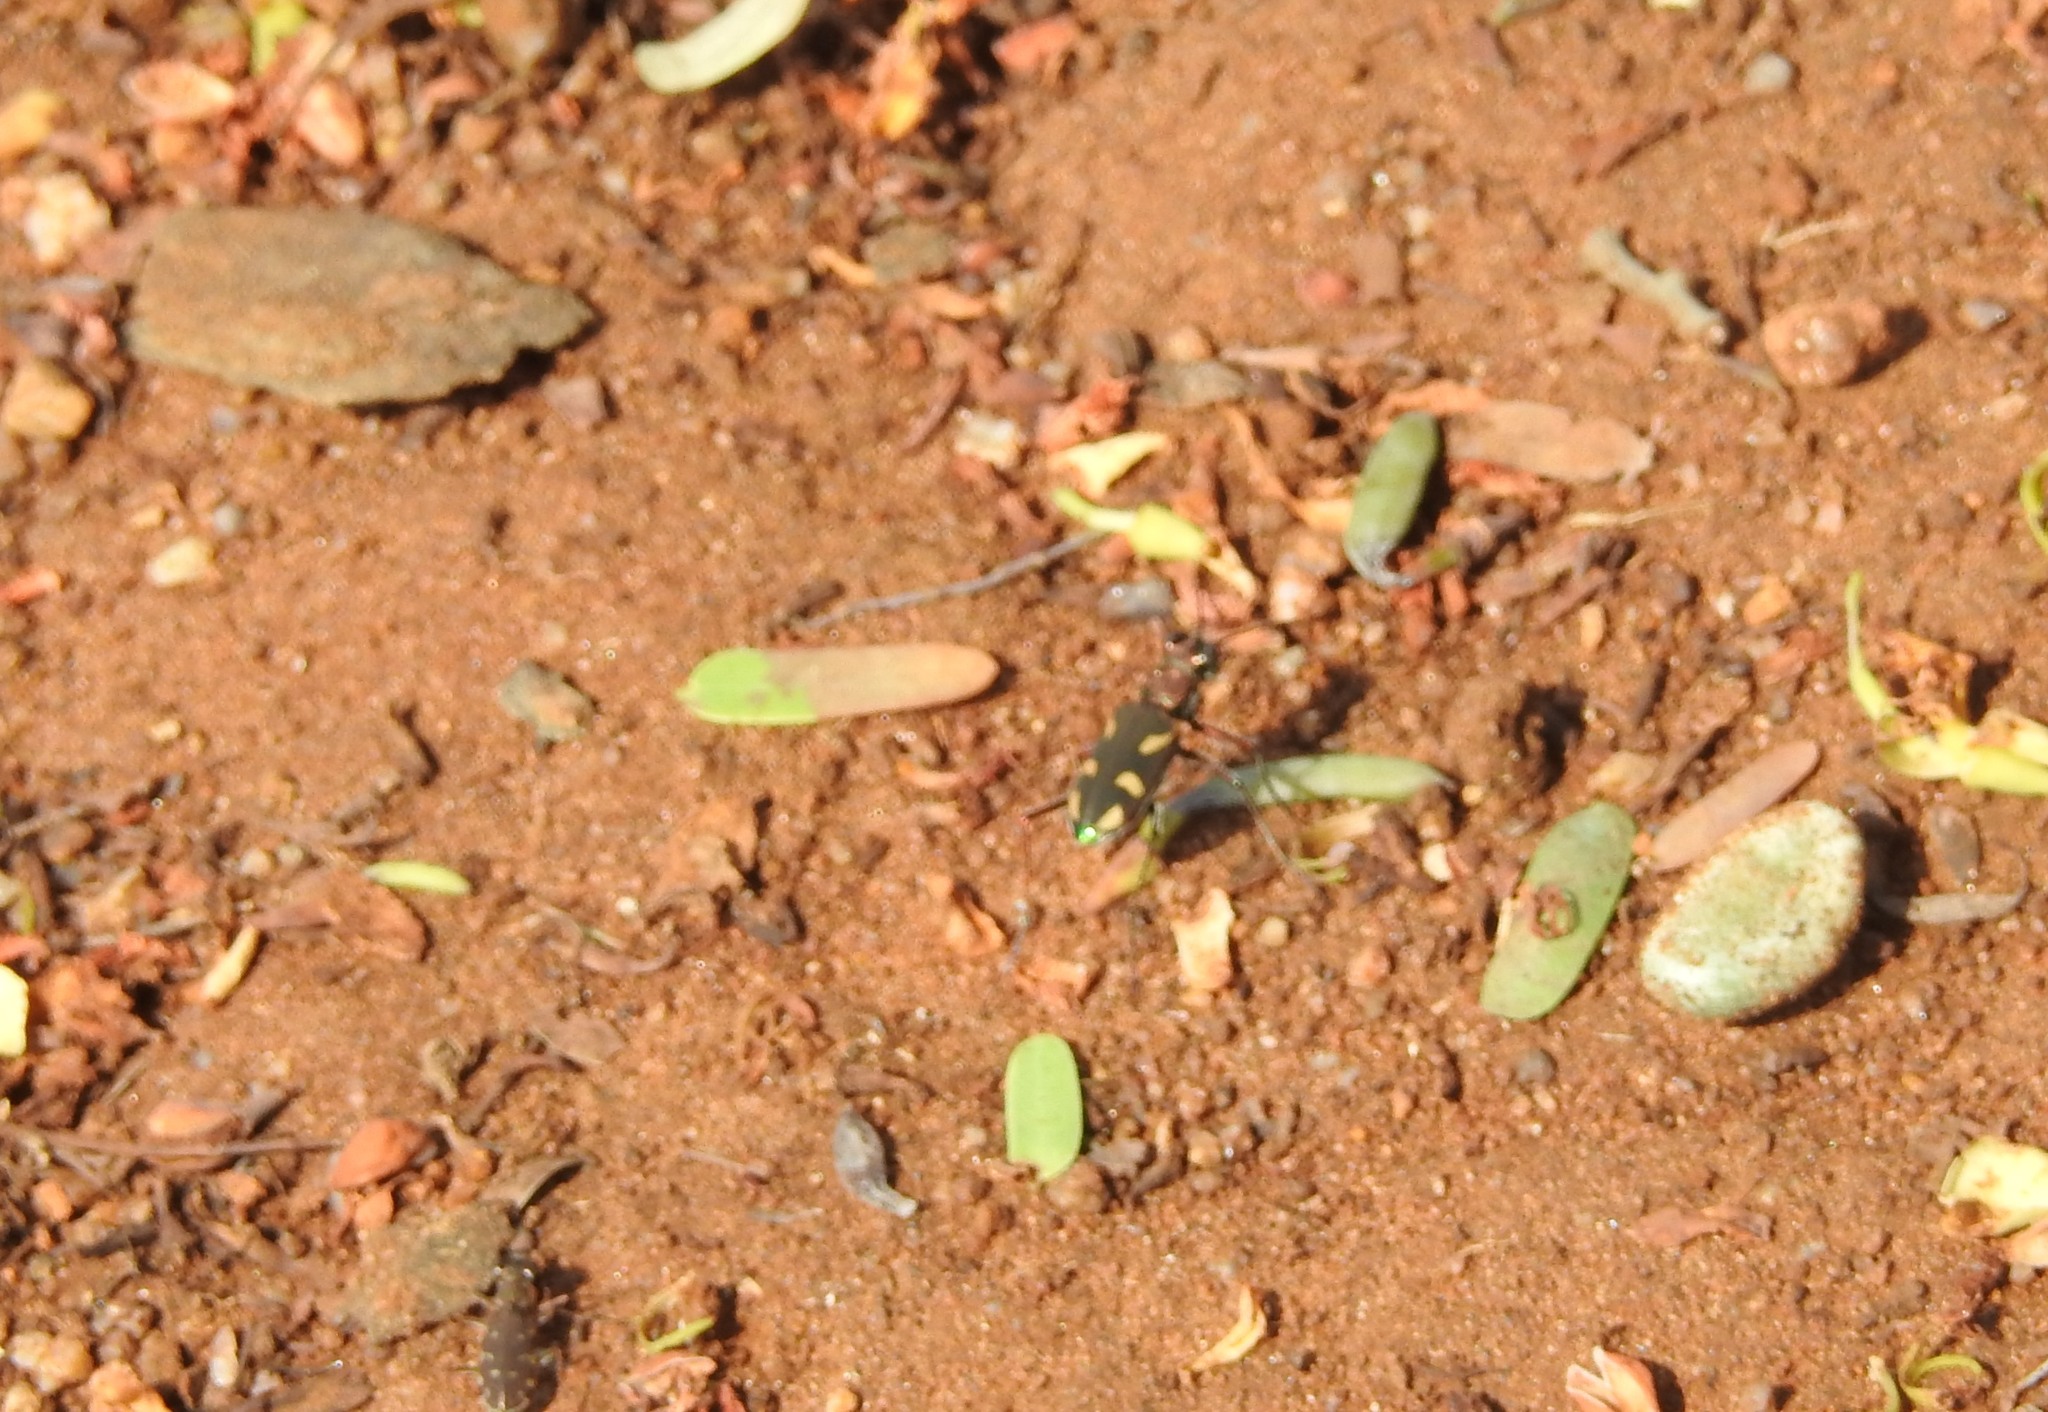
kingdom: Animalia
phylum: Arthropoda
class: Insecta
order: Coleoptera
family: Carabidae
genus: Cicindela
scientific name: Cicindela calligramma
